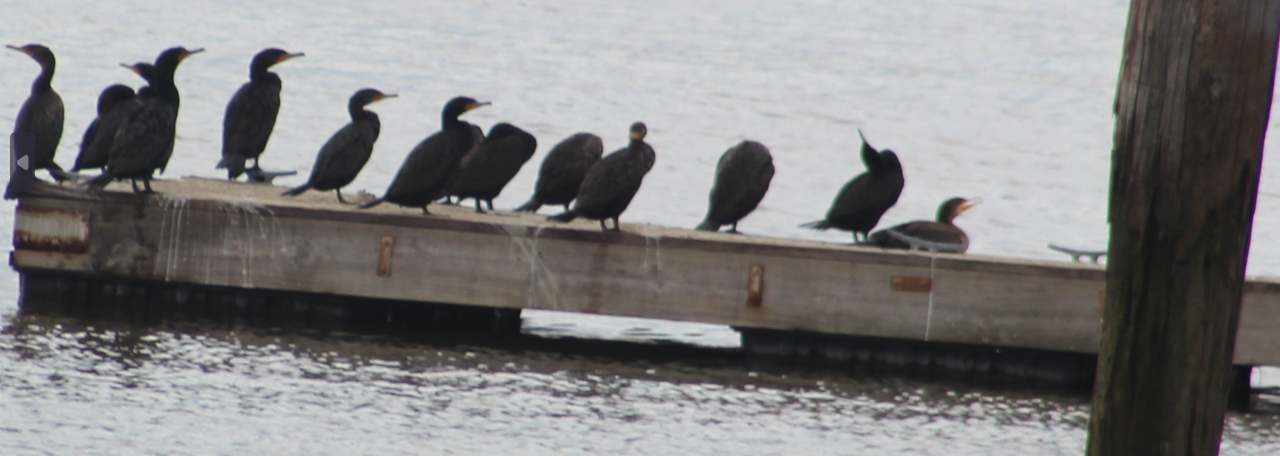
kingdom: Animalia
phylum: Chordata
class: Aves
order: Suliformes
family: Phalacrocoracidae
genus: Phalacrocorax
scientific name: Phalacrocorax auritus
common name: Double-crested cormorant
